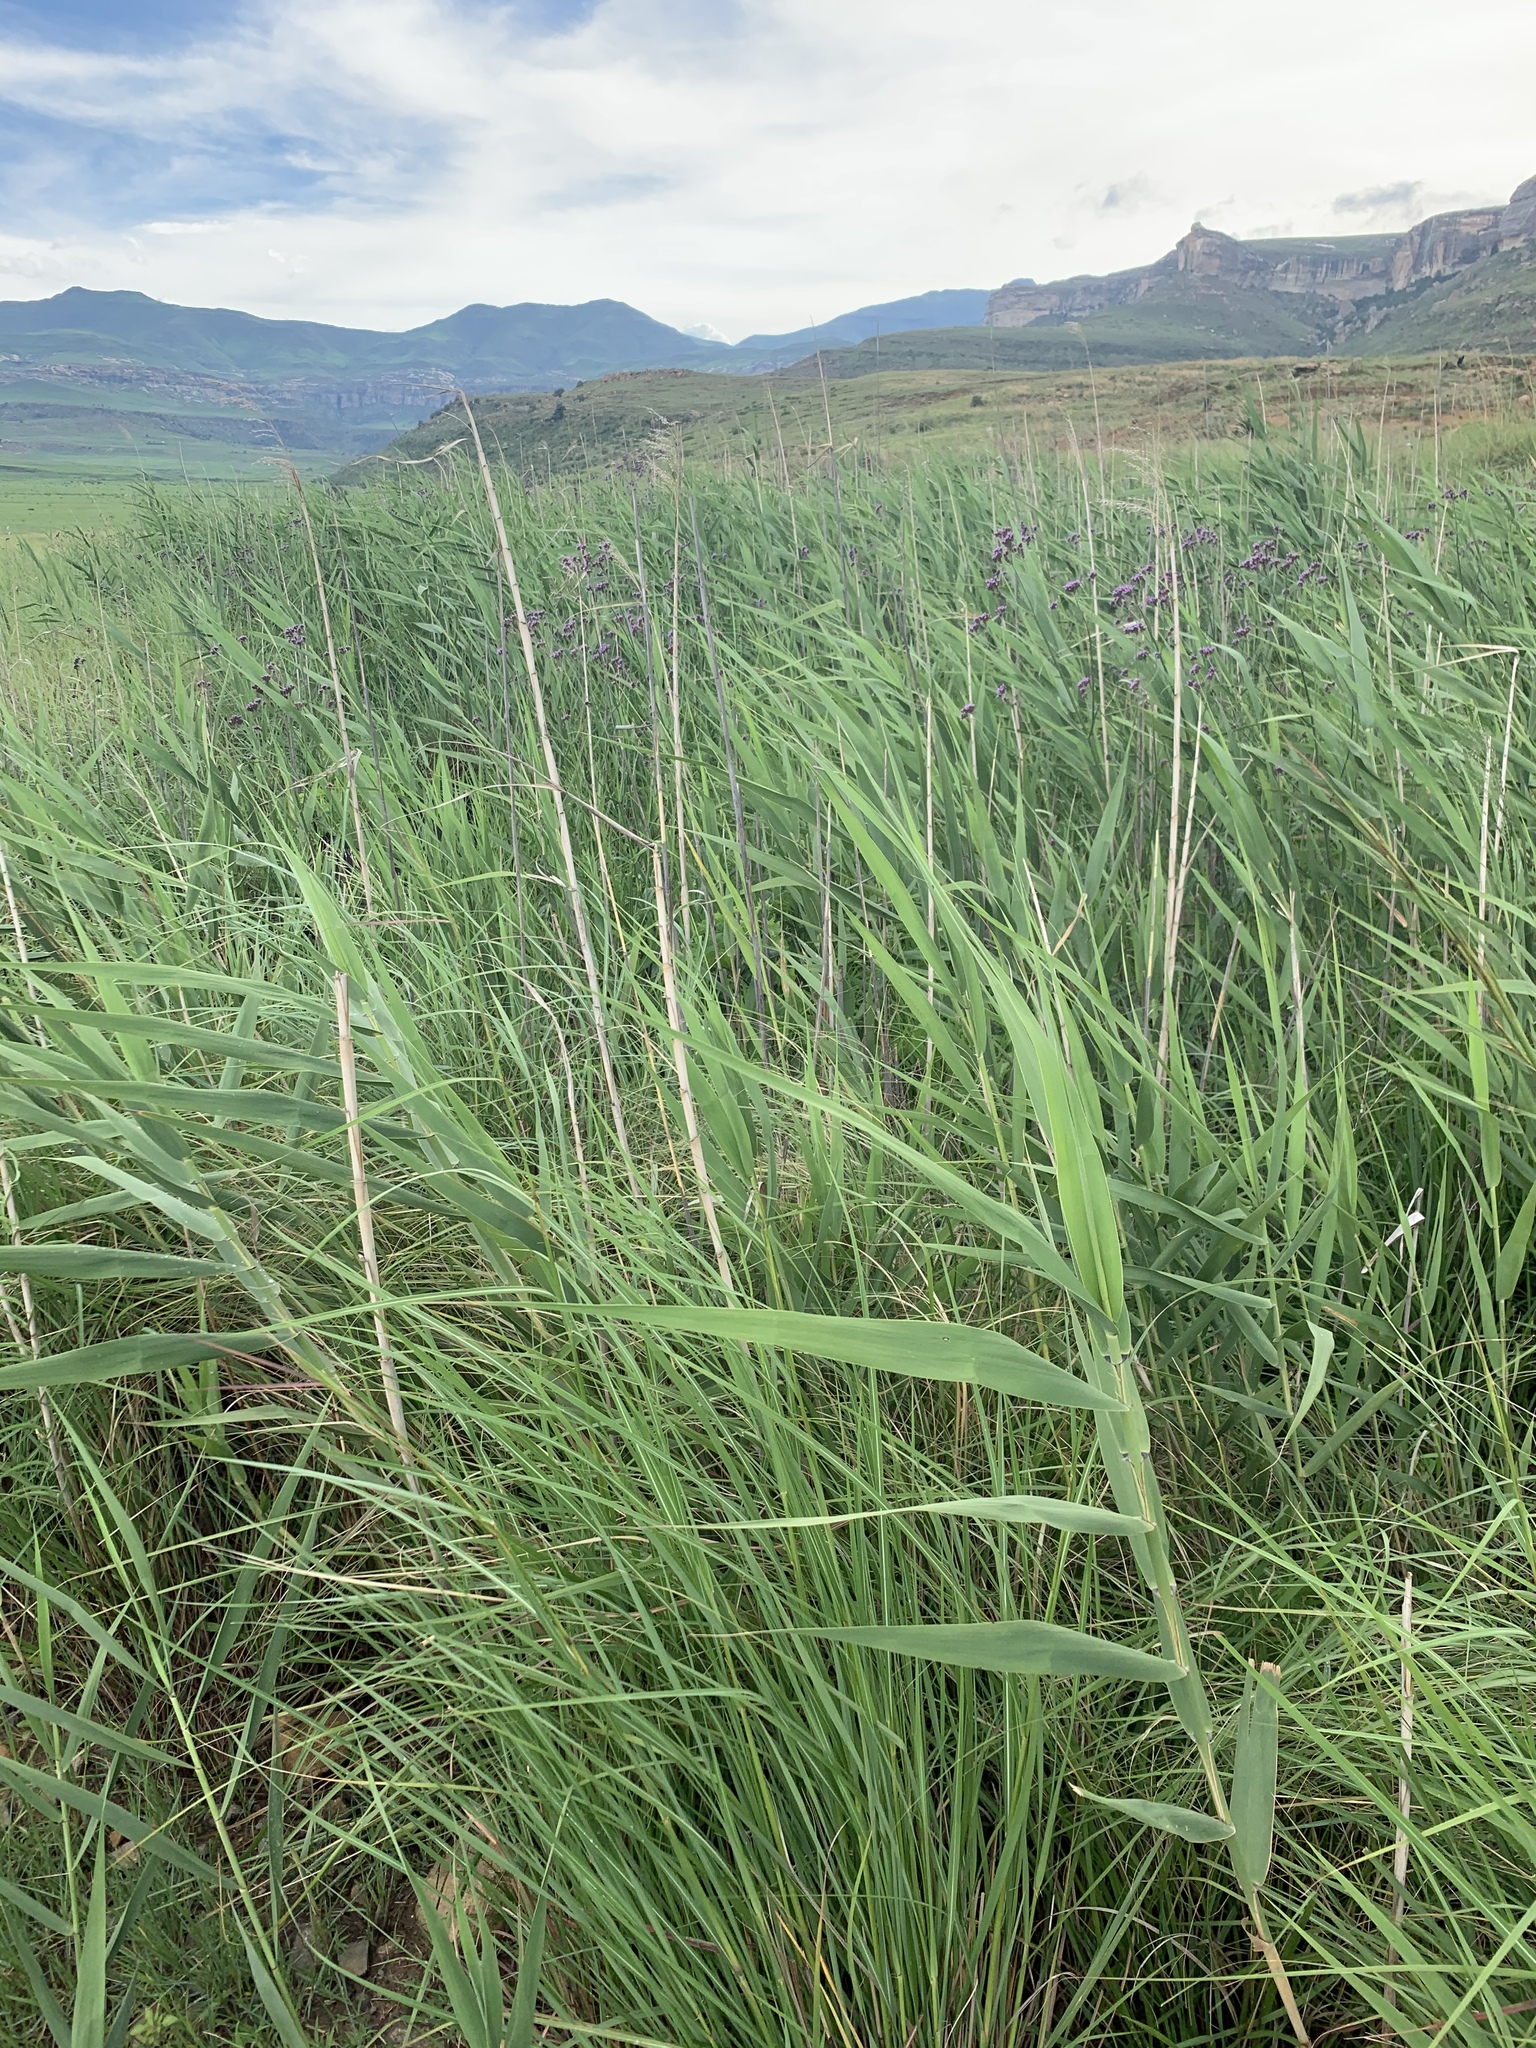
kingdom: Plantae
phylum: Tracheophyta
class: Liliopsida
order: Poales
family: Poaceae
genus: Phragmites
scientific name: Phragmites australis
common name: Common reed
